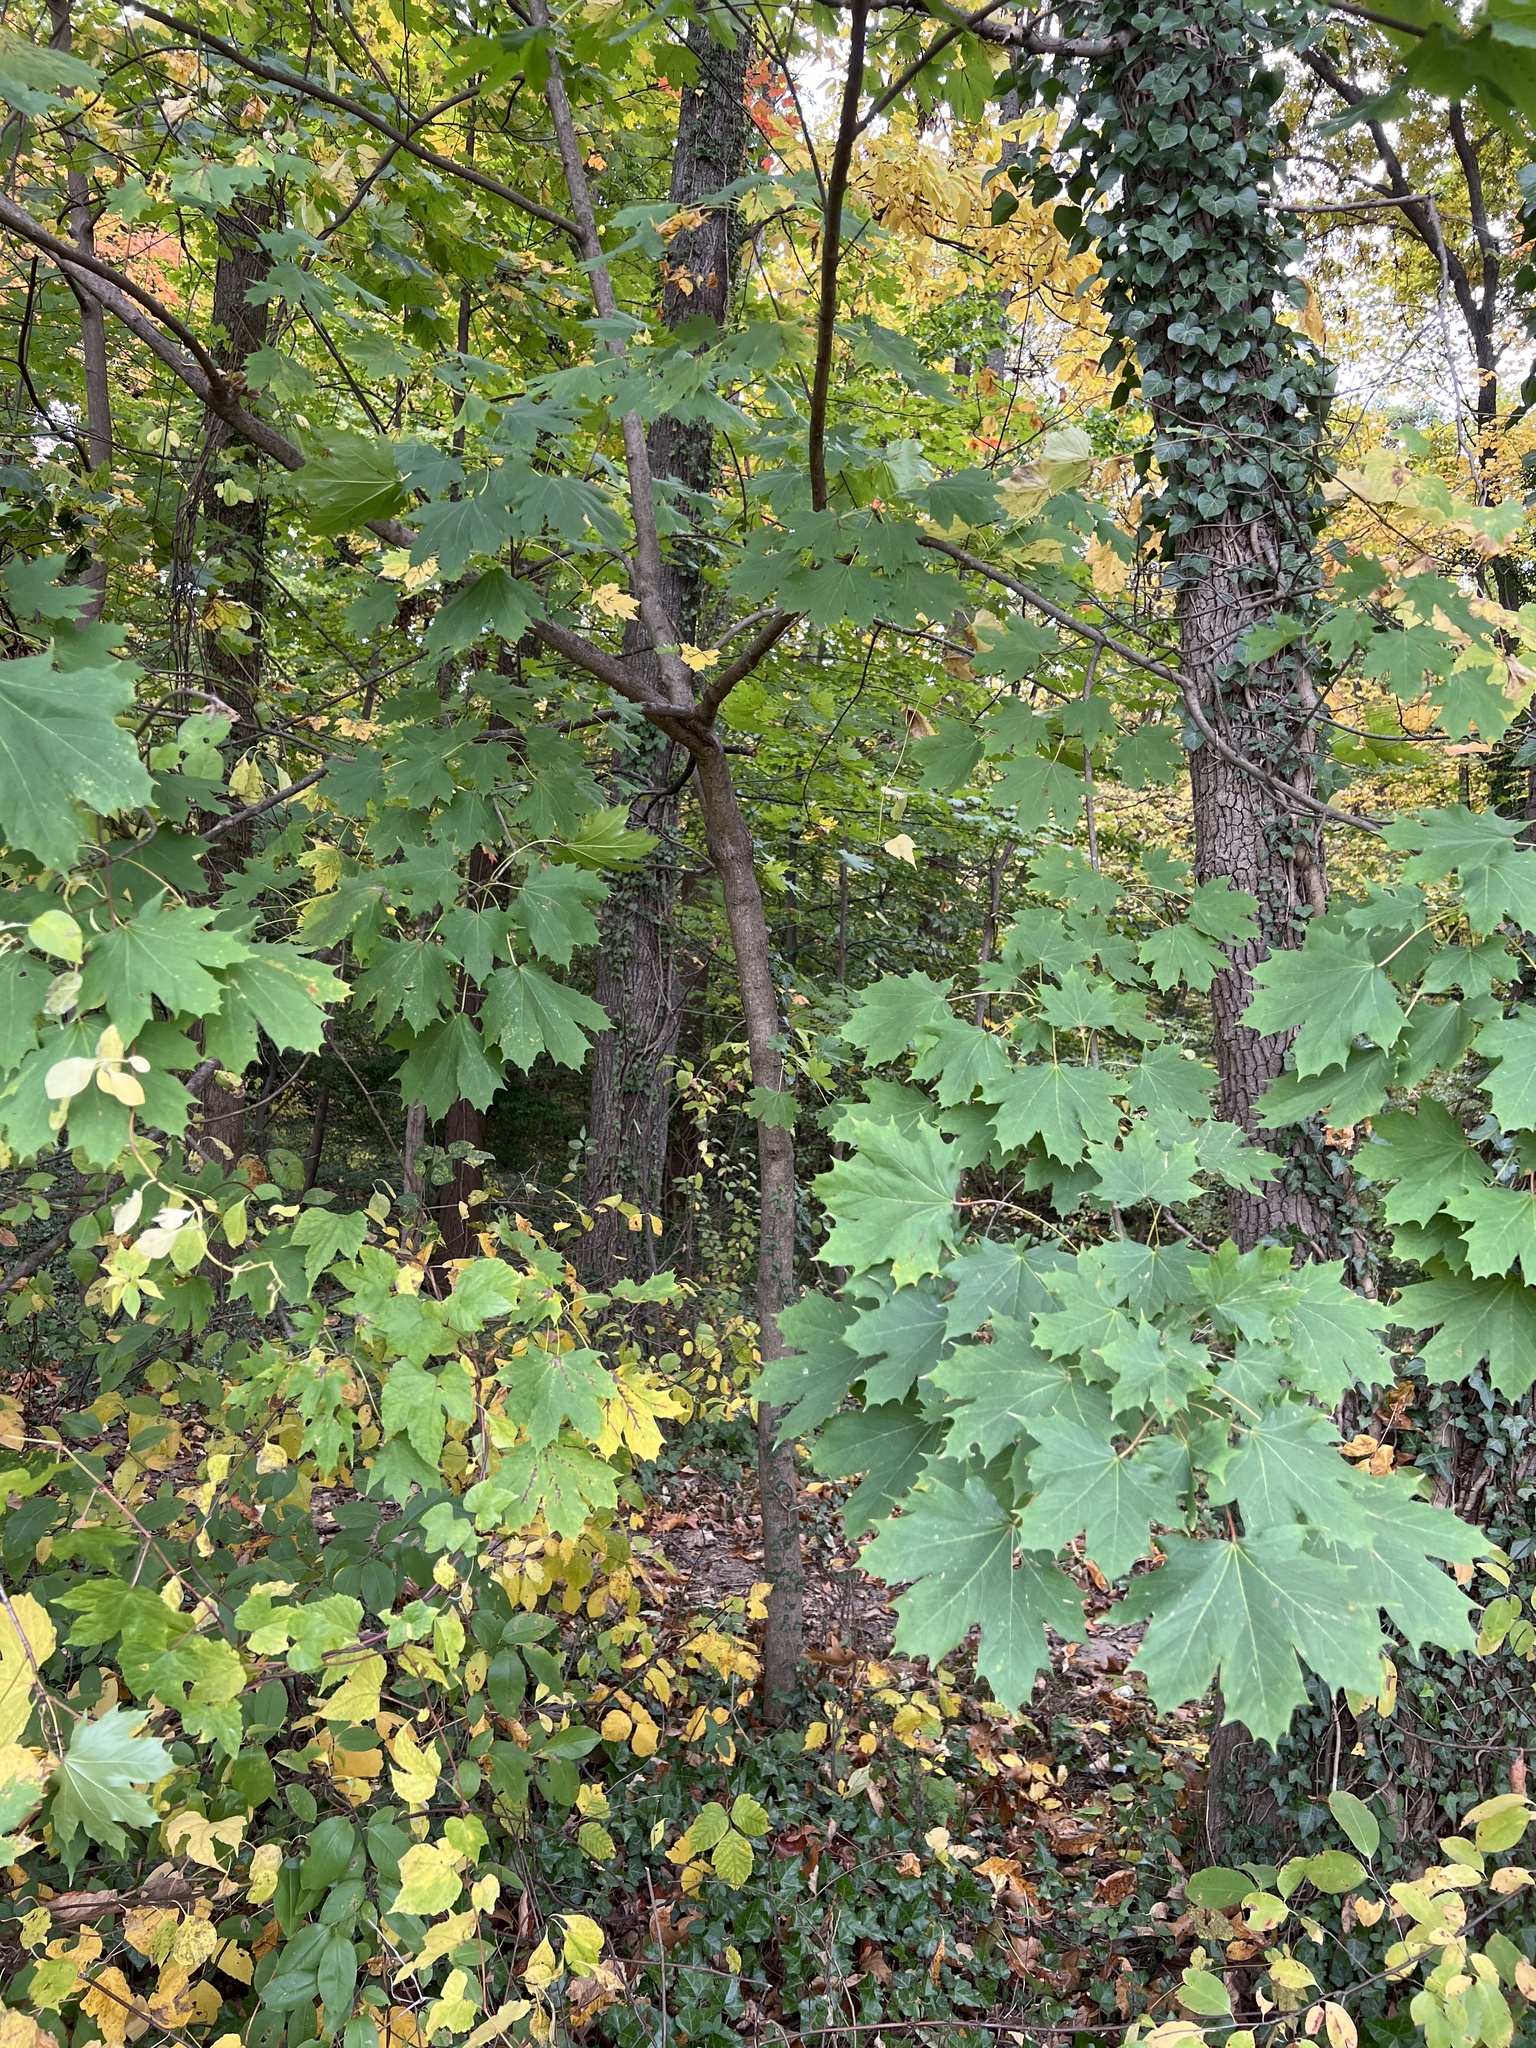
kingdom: Plantae
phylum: Tracheophyta
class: Magnoliopsida
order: Sapindales
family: Sapindaceae
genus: Acer
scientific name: Acer platanoides
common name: Norway maple
